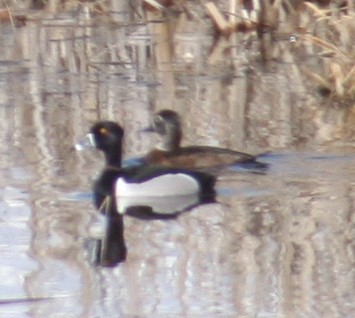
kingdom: Animalia
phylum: Chordata
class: Aves
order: Anseriformes
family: Anatidae
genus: Aythya
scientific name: Aythya collaris
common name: Ring-necked duck
